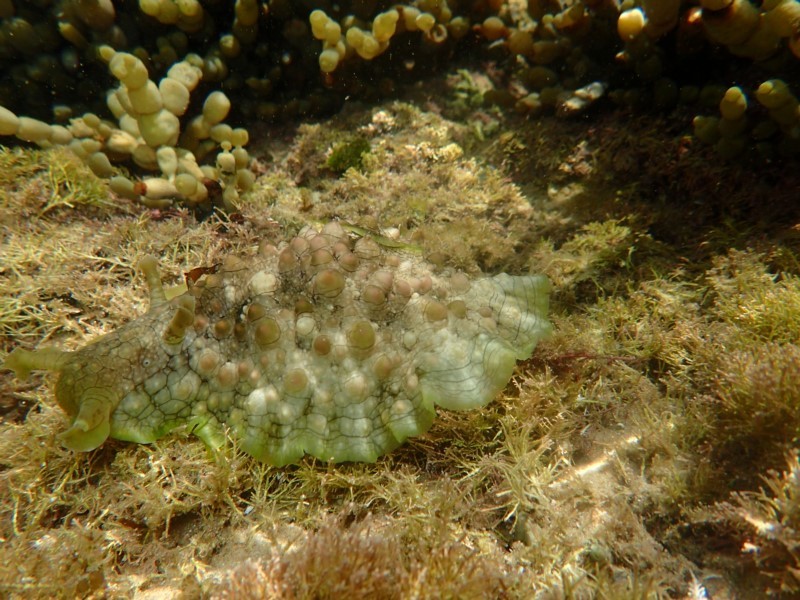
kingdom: Animalia
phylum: Mollusca
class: Gastropoda
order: Aplysiida
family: Aplysiidae
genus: Dolabrifera
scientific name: Dolabrifera brazieri
